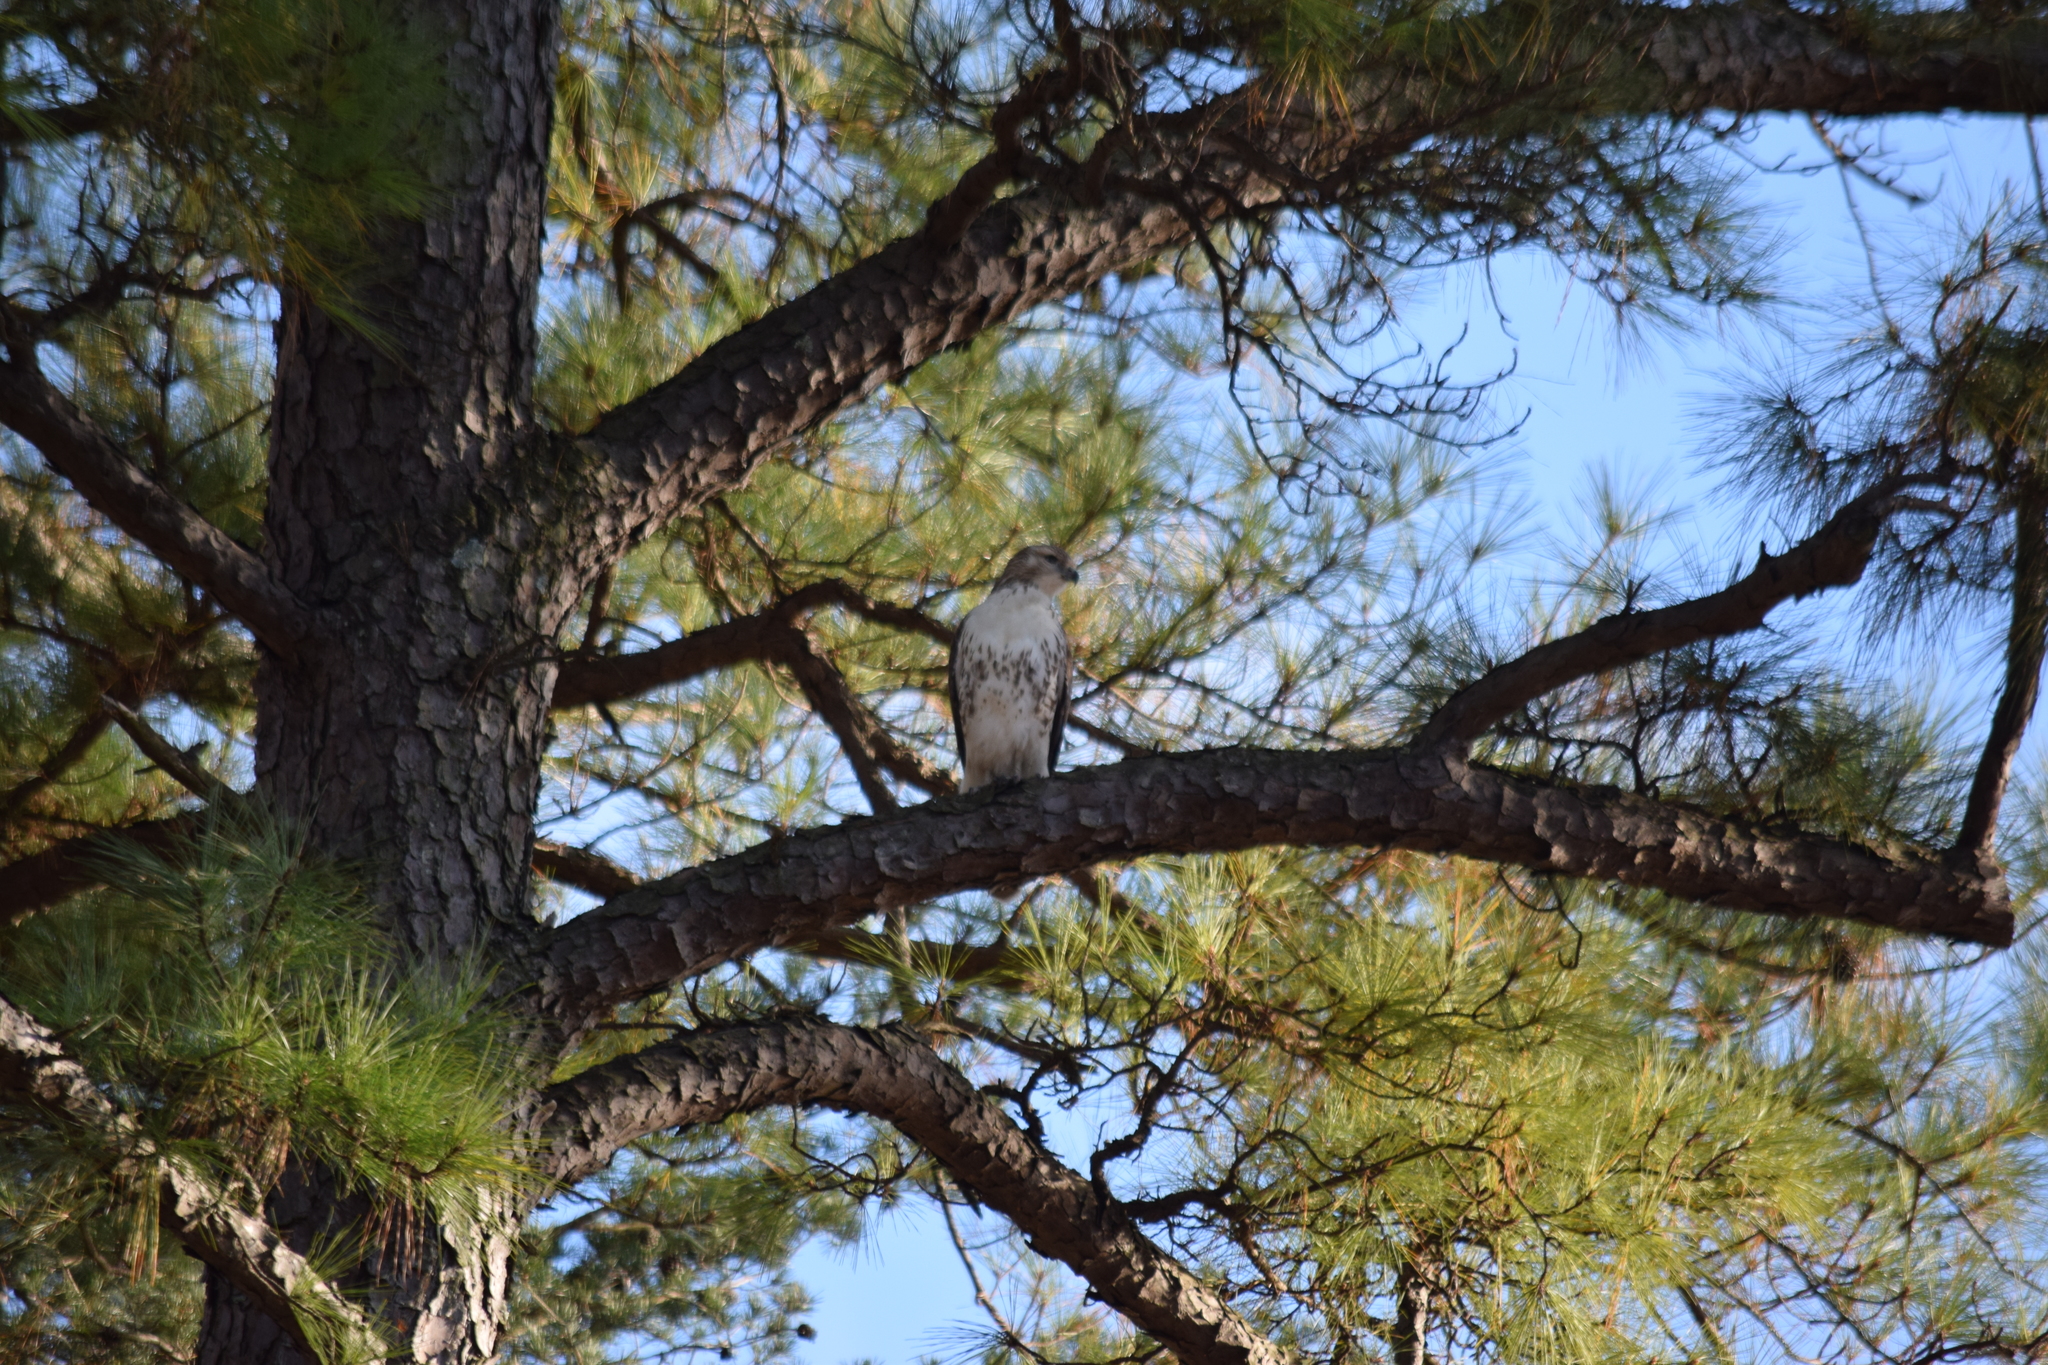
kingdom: Animalia
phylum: Chordata
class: Aves
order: Accipitriformes
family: Accipitridae
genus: Buteo
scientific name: Buteo jamaicensis
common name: Red-tailed hawk
